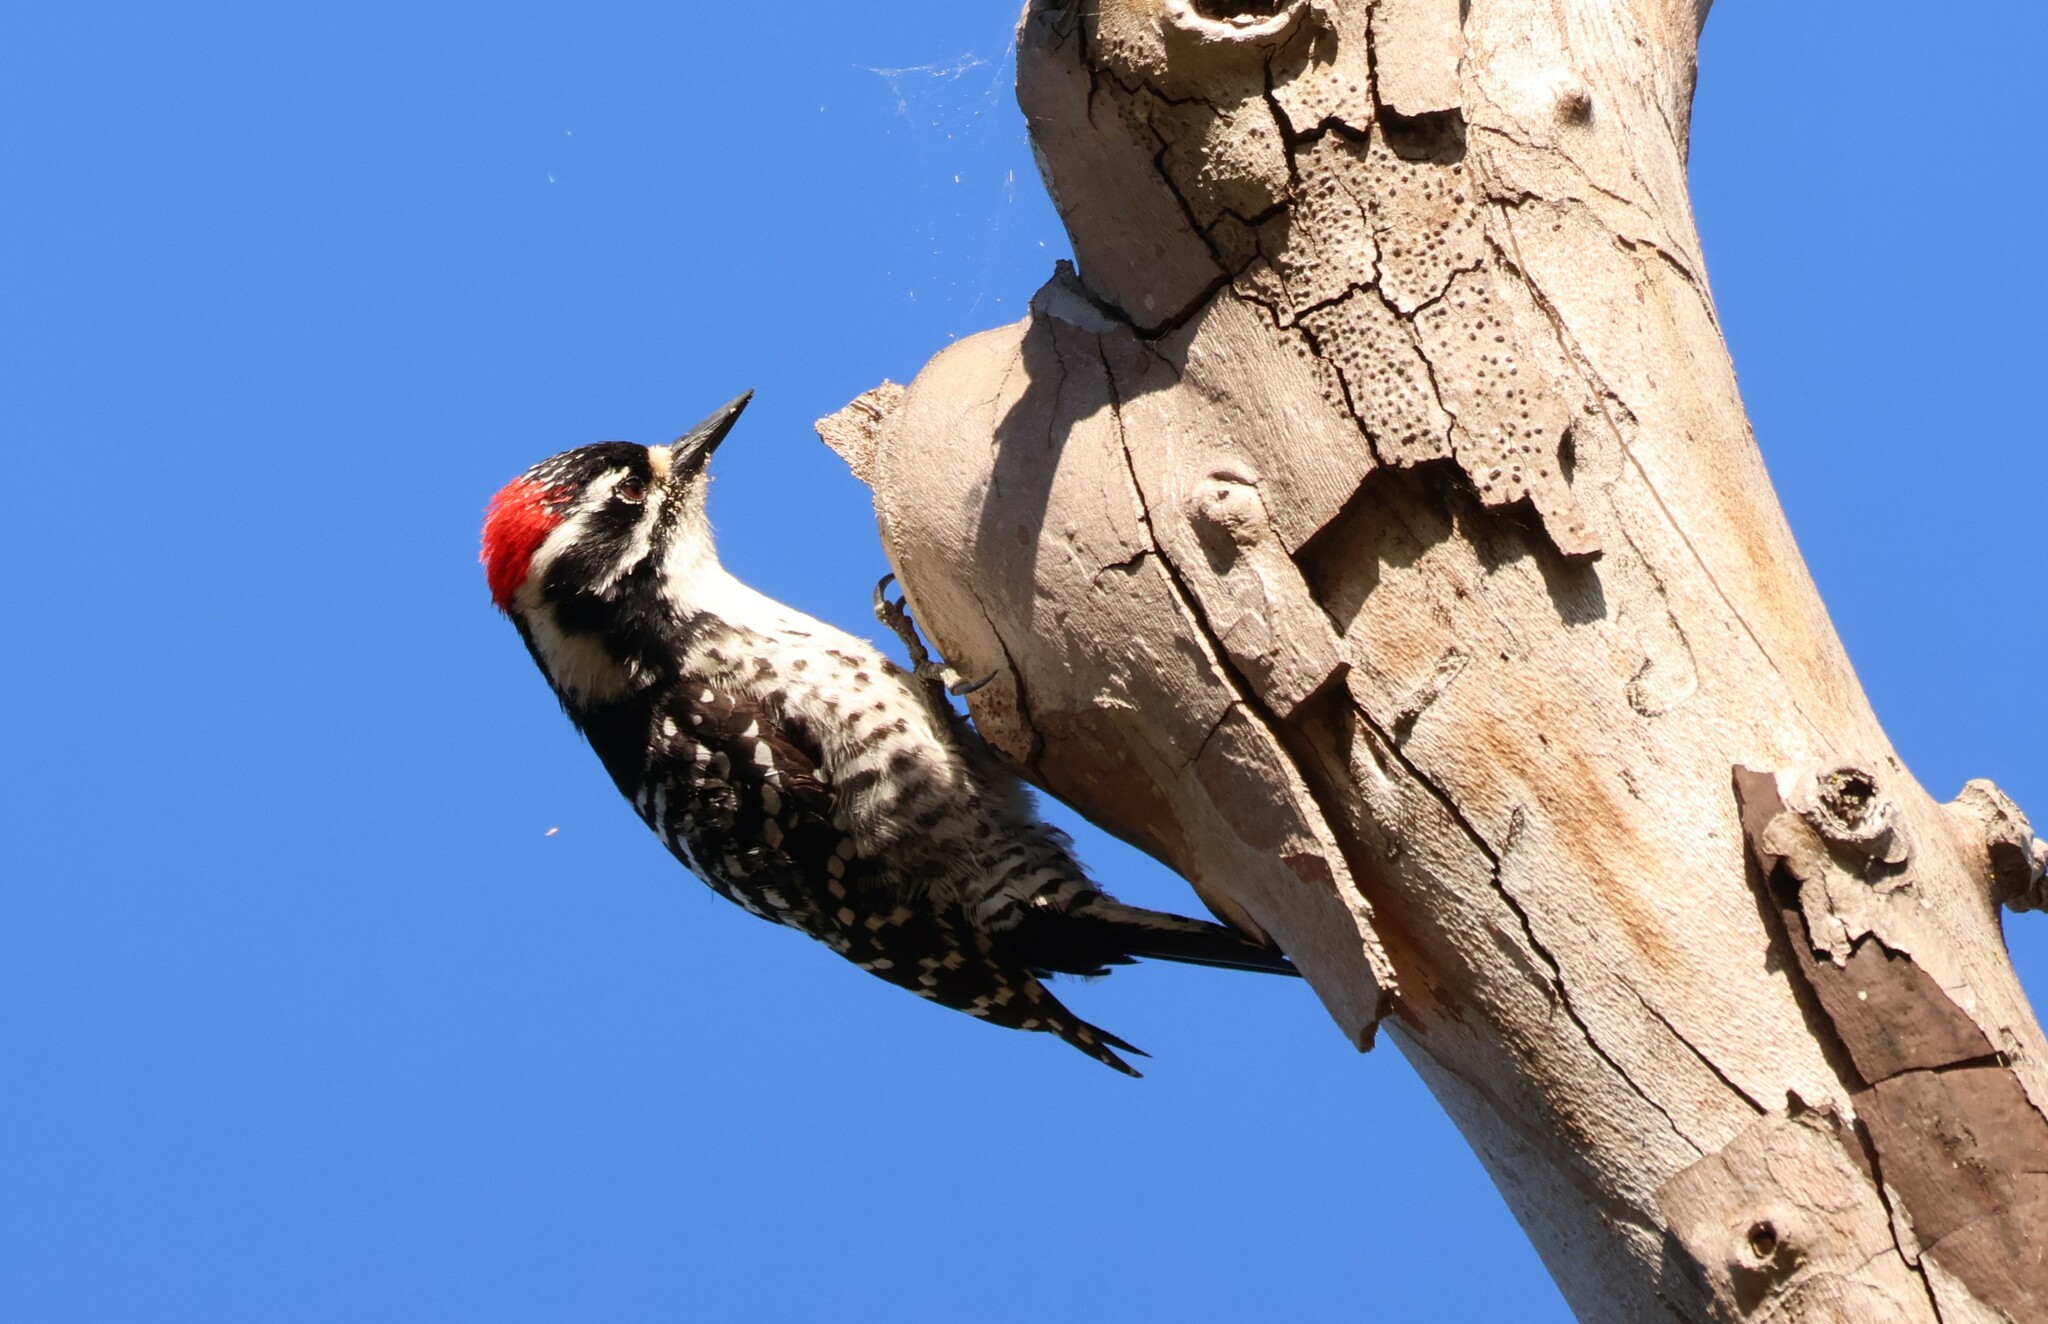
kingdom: Animalia
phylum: Chordata
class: Aves
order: Piciformes
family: Picidae
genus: Dryobates
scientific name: Dryobates nuttallii
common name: Nuttall's woodpecker
